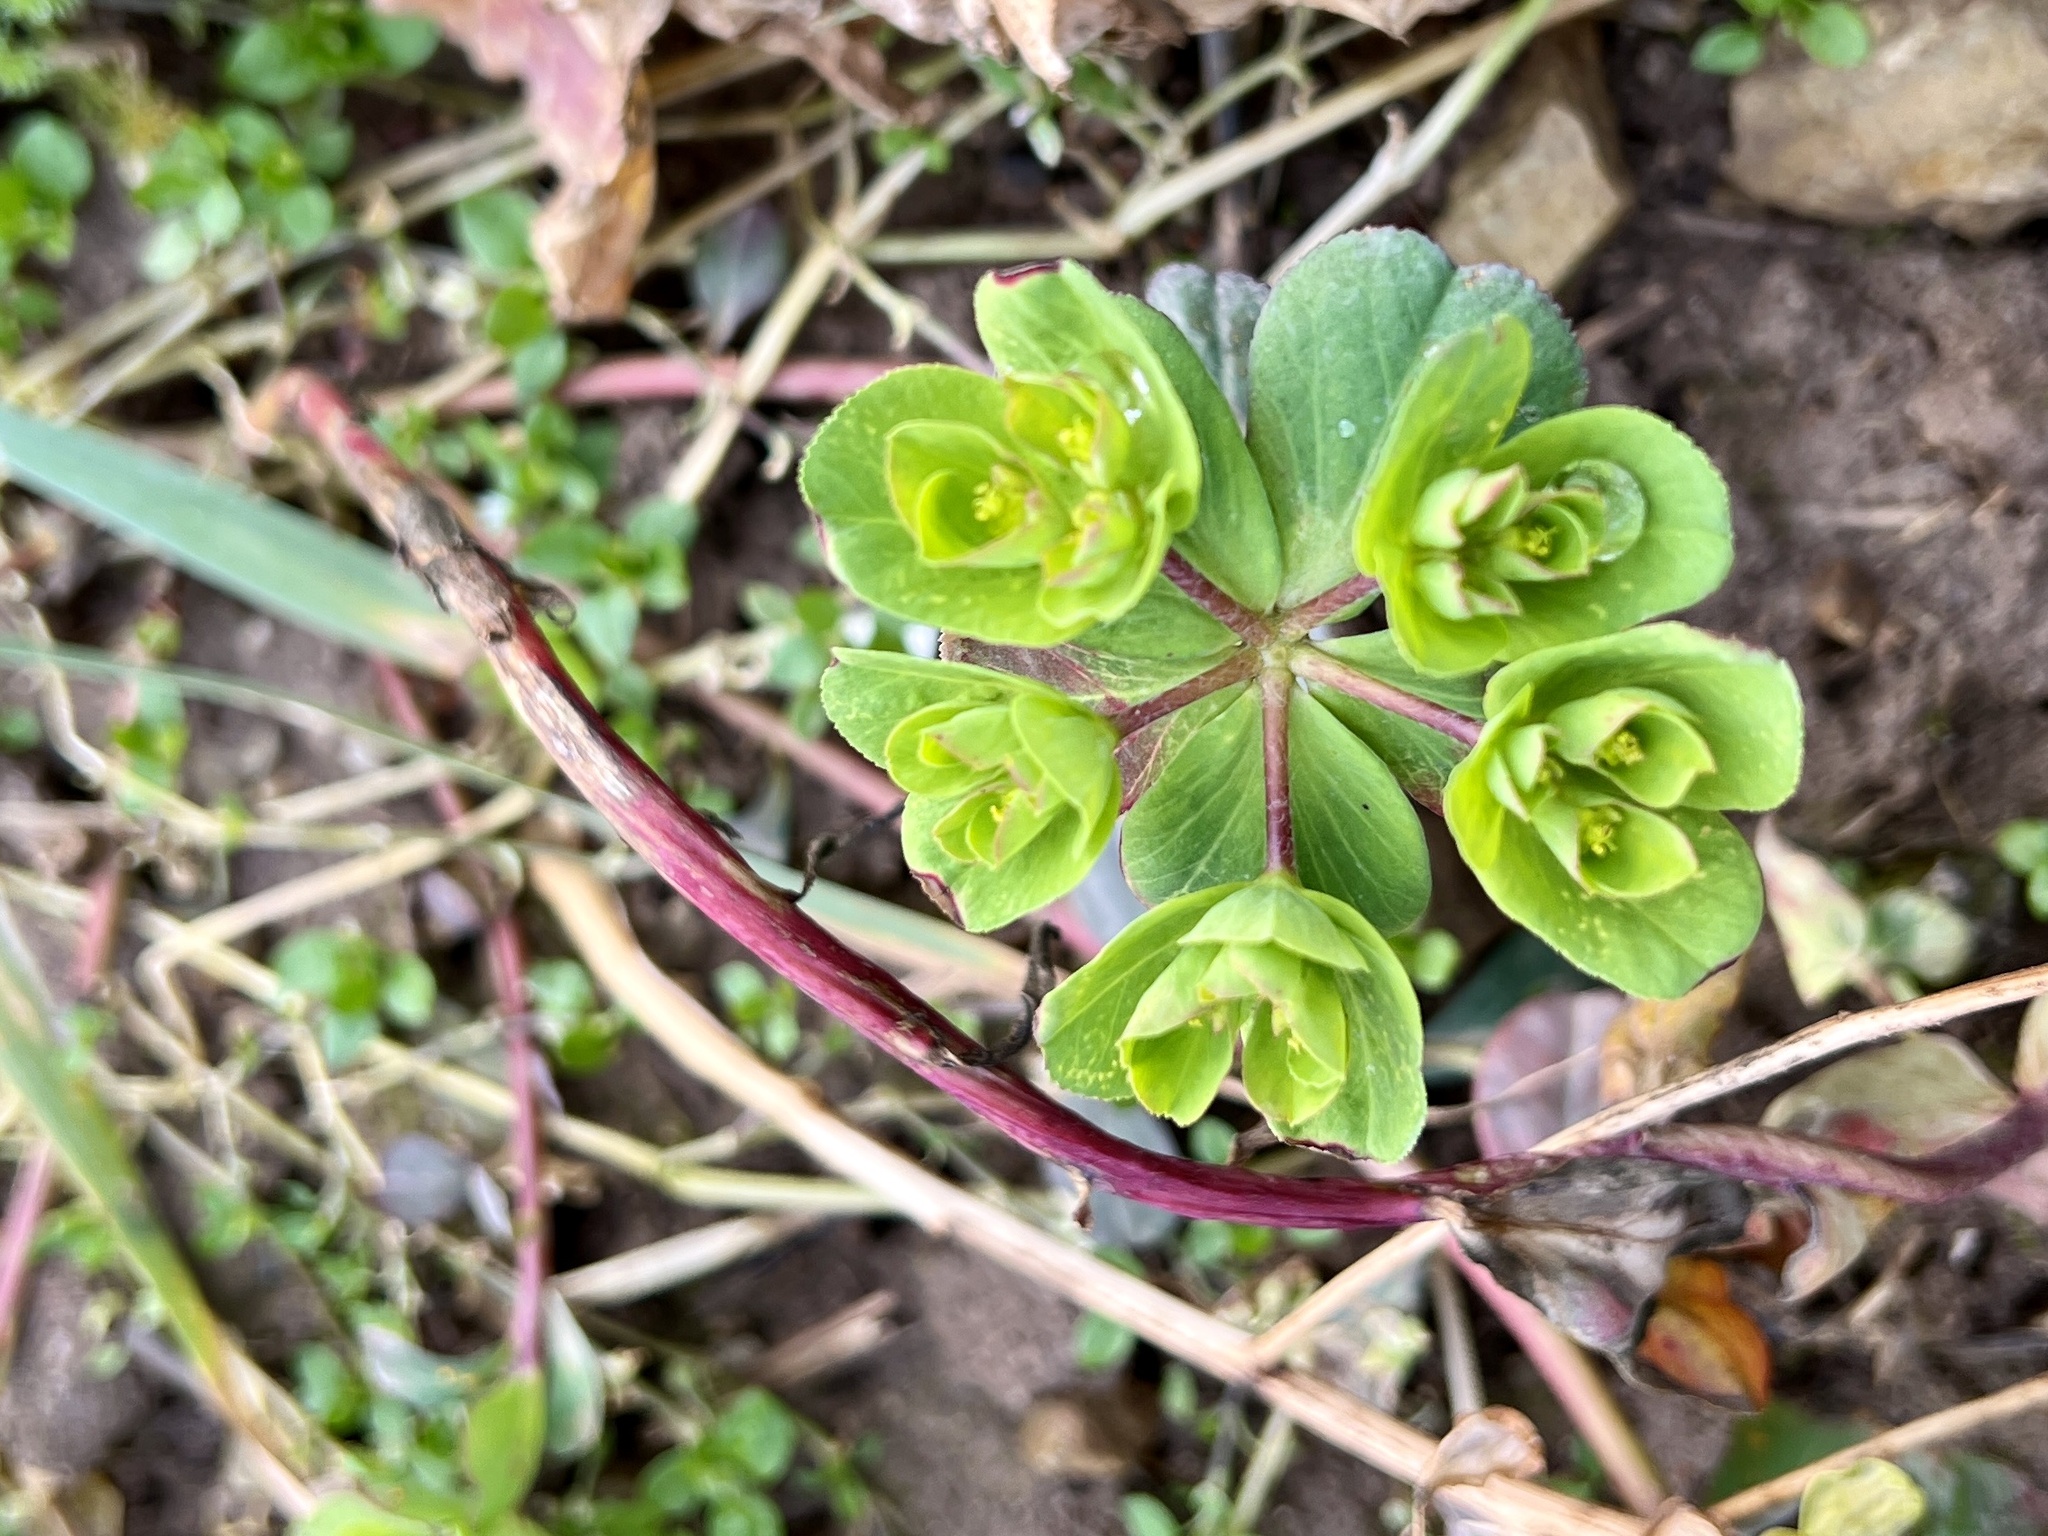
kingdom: Plantae
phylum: Tracheophyta
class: Magnoliopsida
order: Malpighiales
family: Euphorbiaceae
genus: Euphorbia
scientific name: Euphorbia helioscopia
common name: Sun spurge
